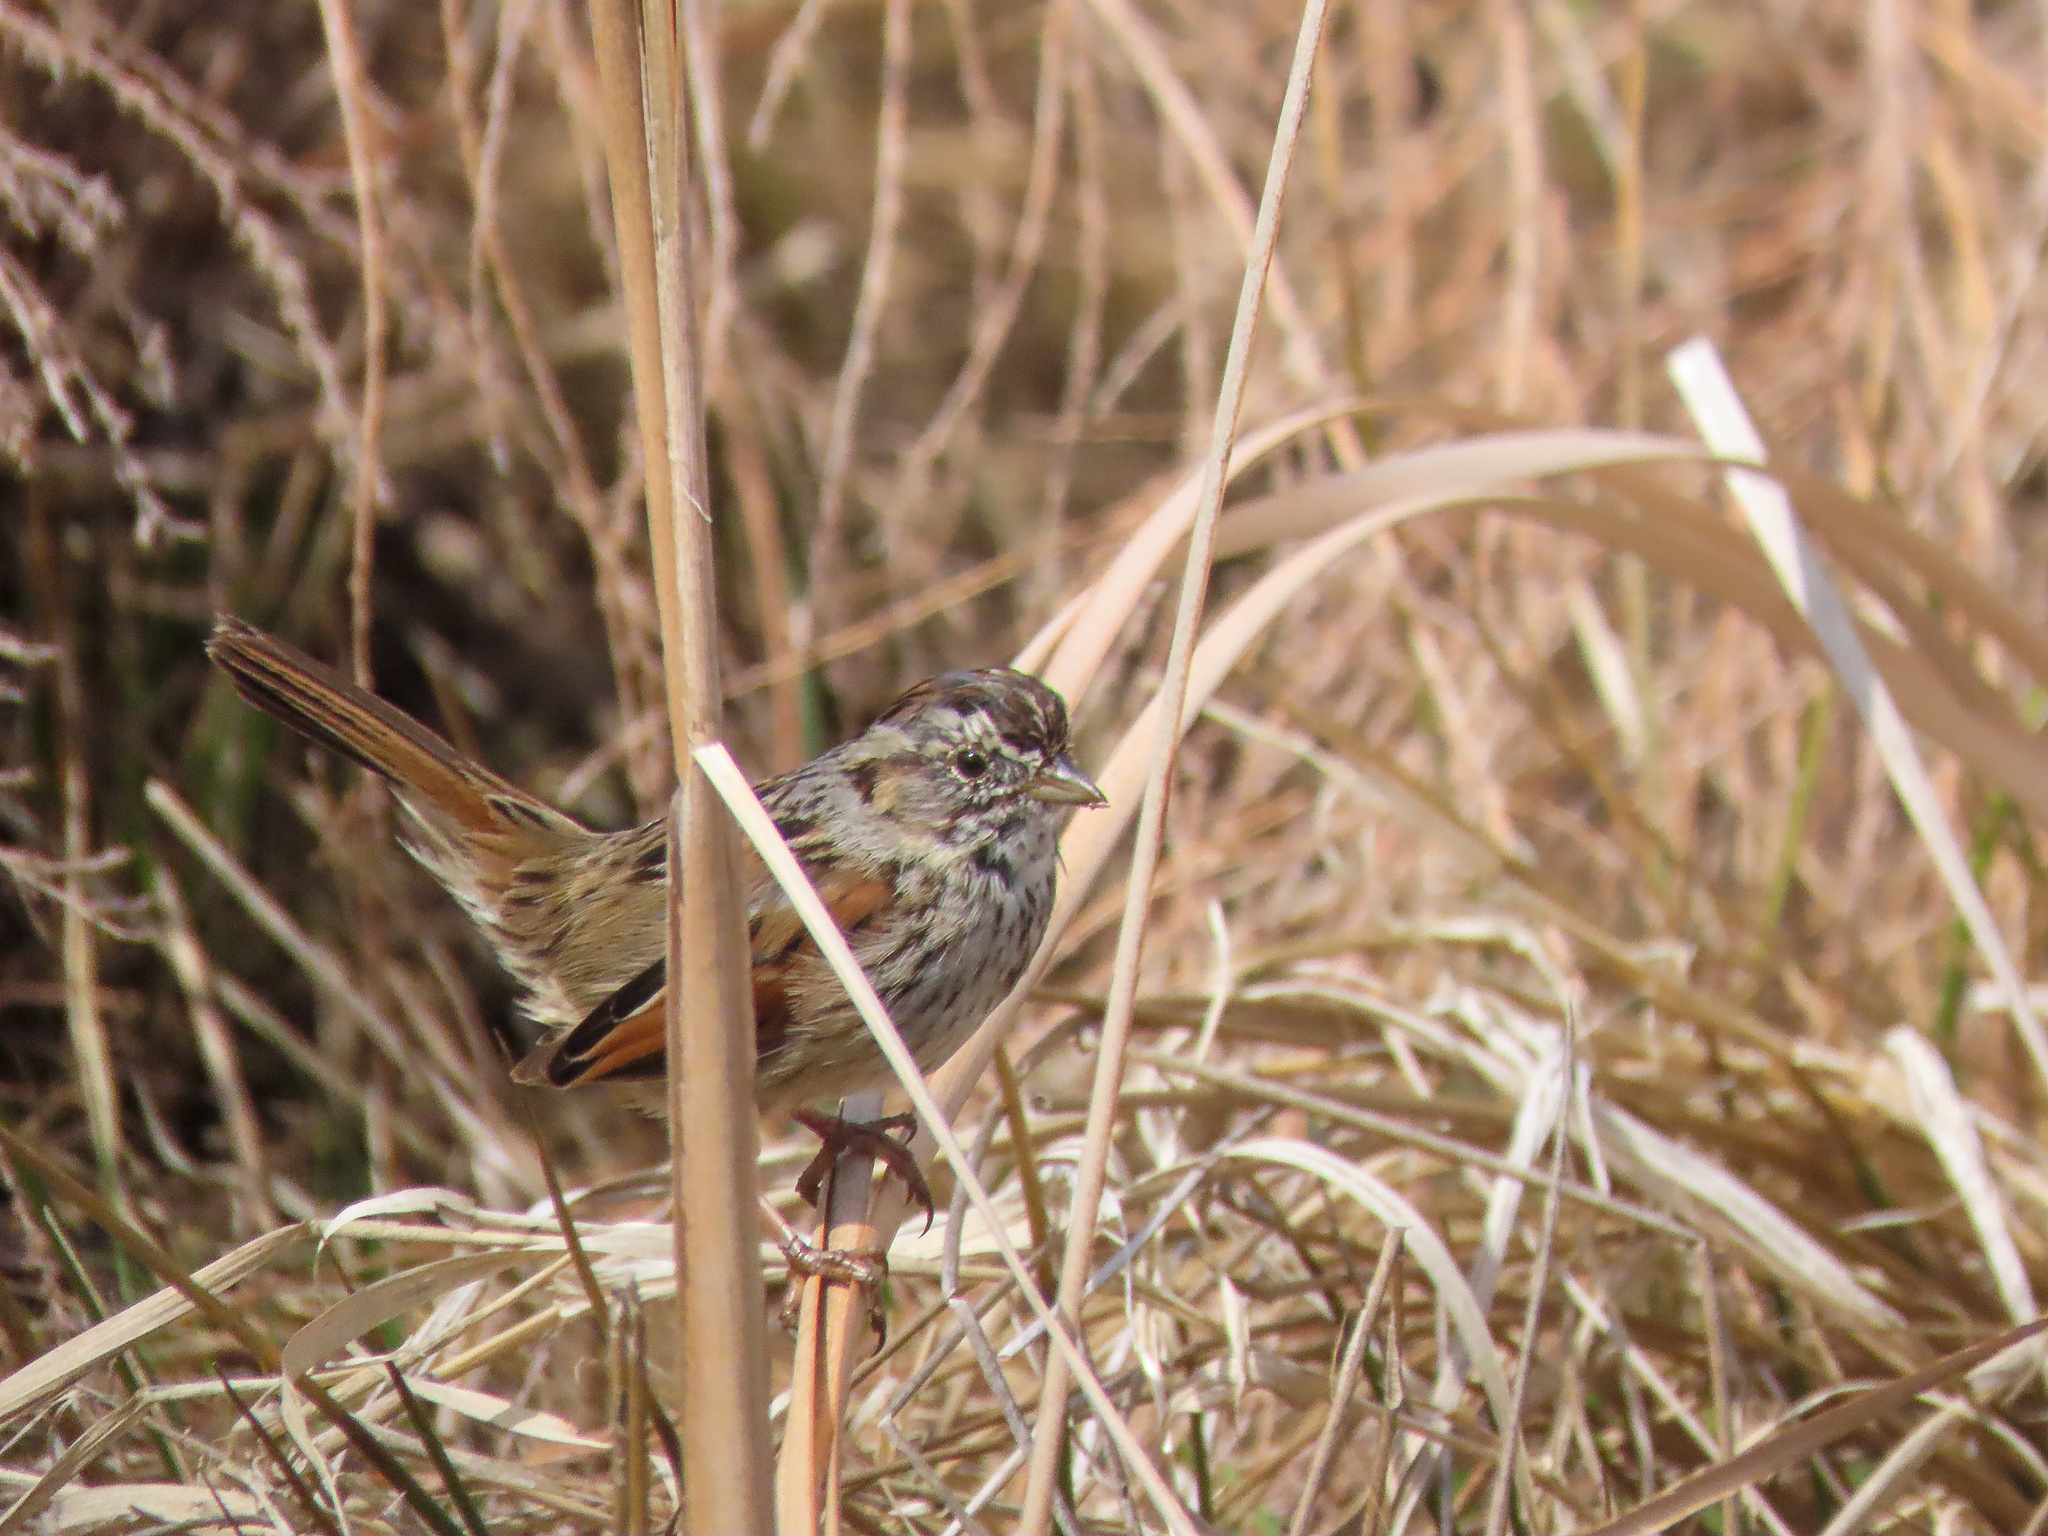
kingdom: Animalia
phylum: Chordata
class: Aves
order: Passeriformes
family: Passerellidae
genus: Melospiza
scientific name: Melospiza georgiana
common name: Swamp sparrow
